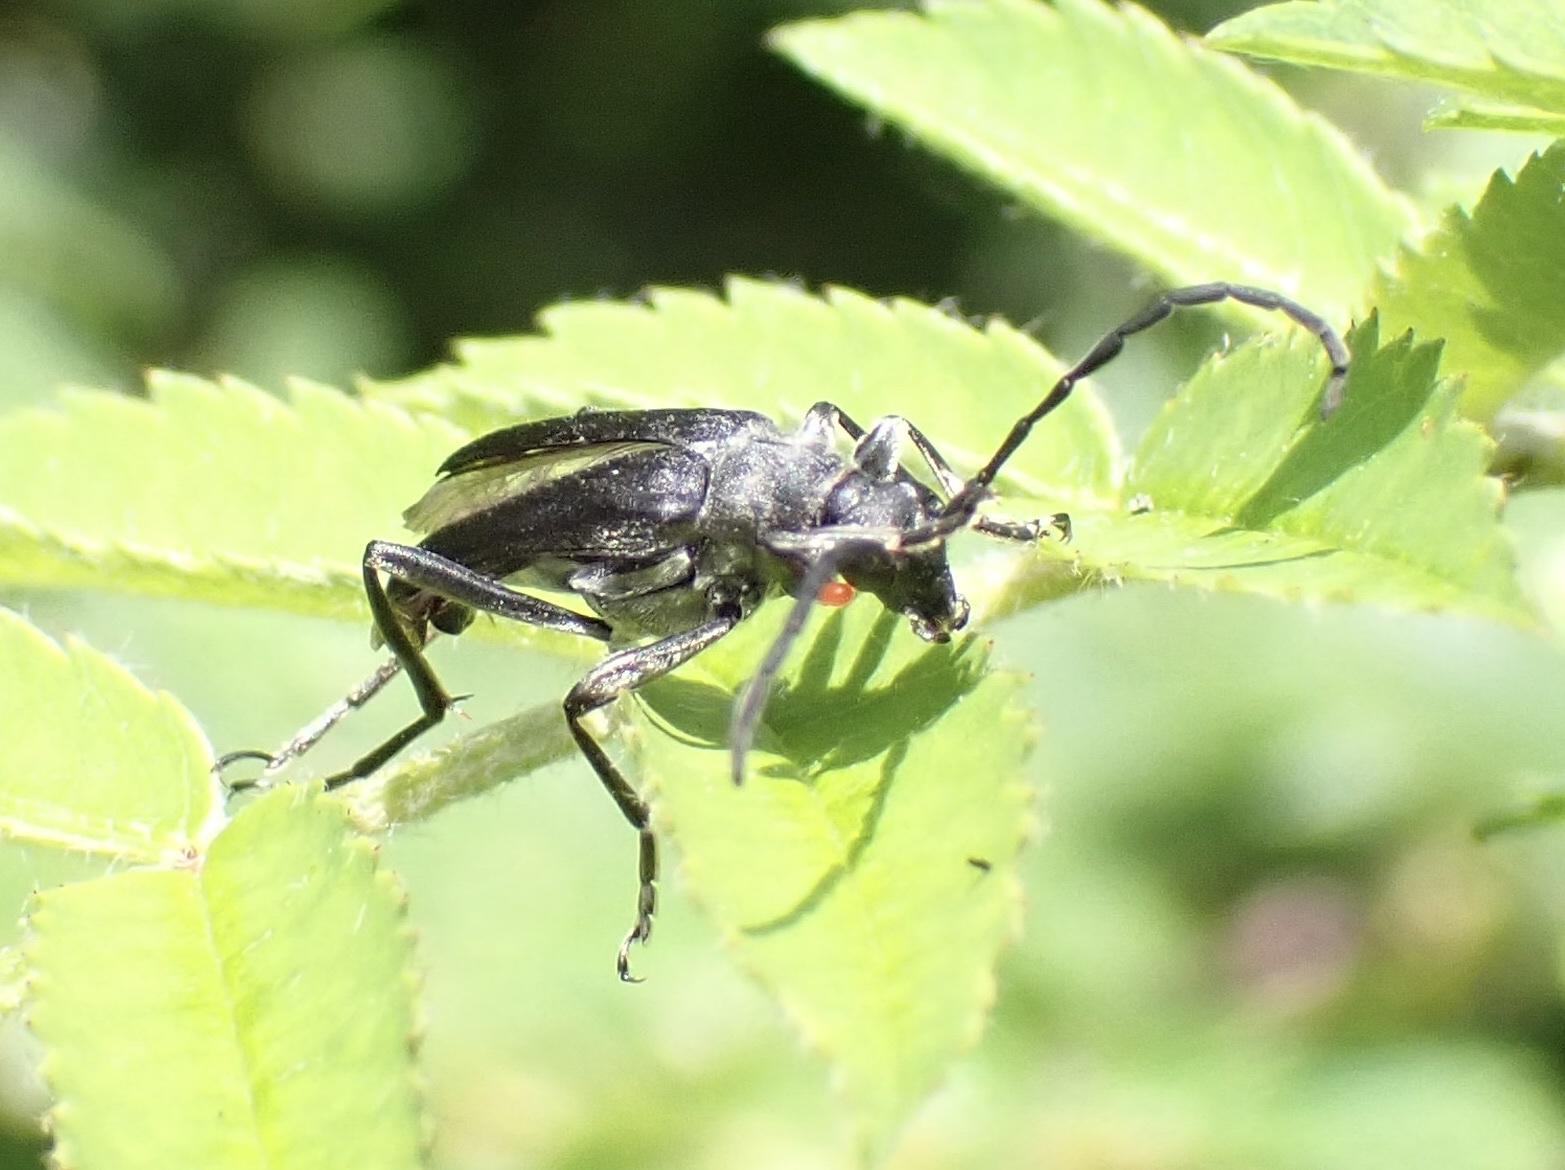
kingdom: Animalia
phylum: Arthropoda
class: Insecta
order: Coleoptera
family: Cerambycidae
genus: Leptura
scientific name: Leptura aethiops
